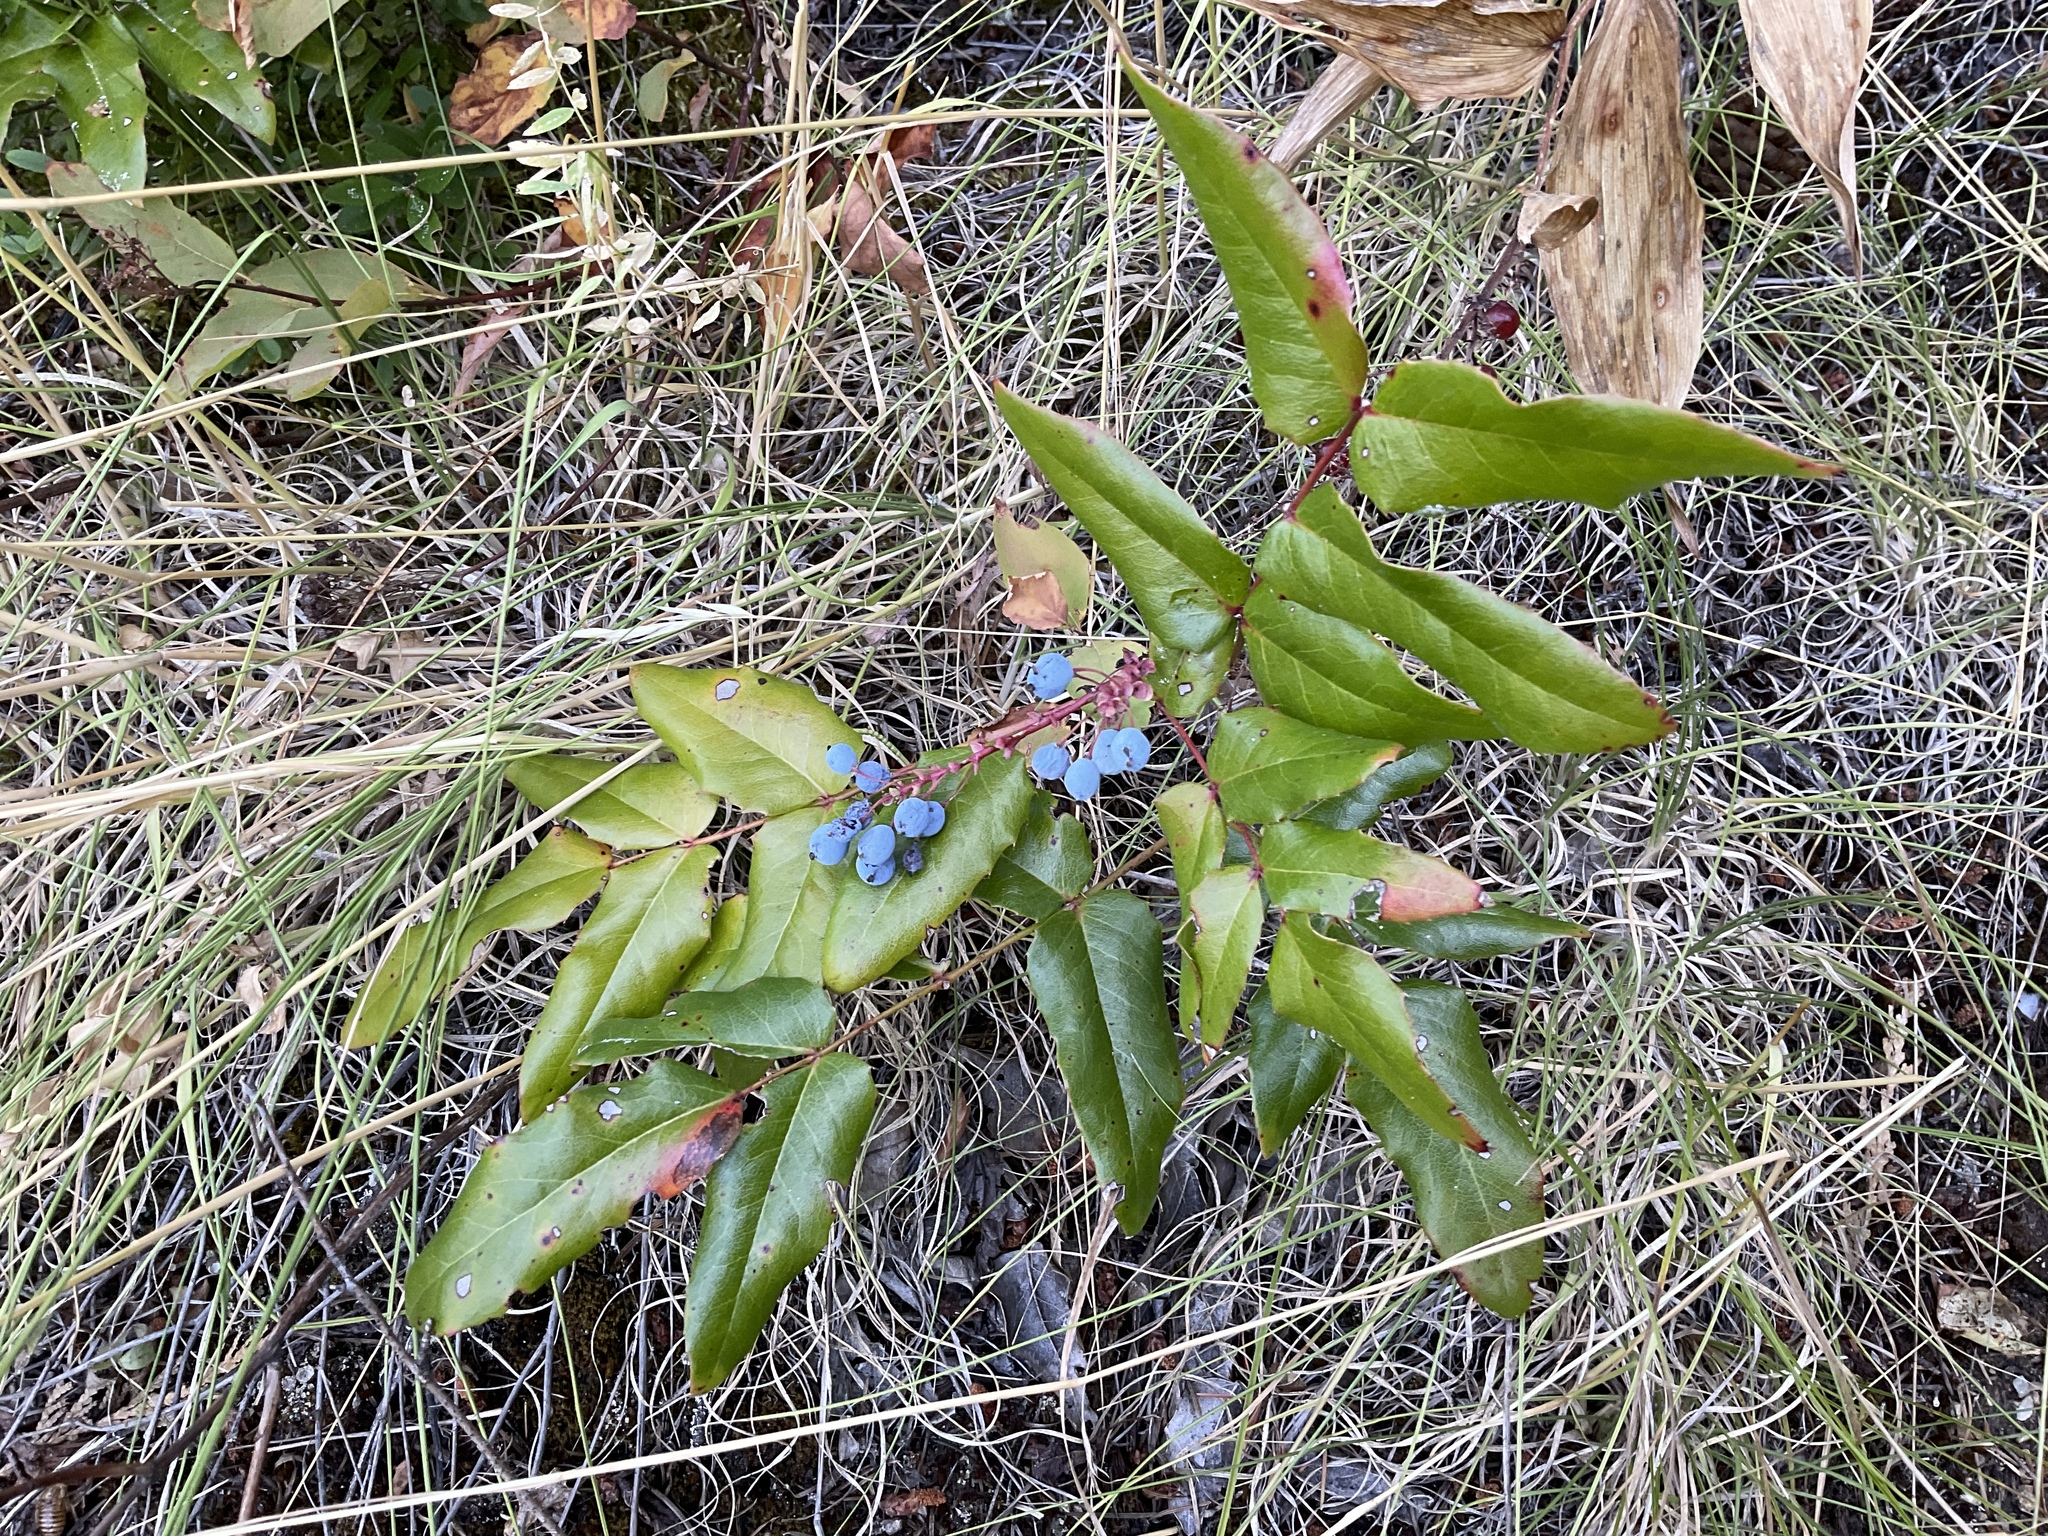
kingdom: Plantae
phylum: Tracheophyta
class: Magnoliopsida
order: Ranunculales
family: Berberidaceae
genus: Mahonia
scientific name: Mahonia aquifolium
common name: Oregon-grape
